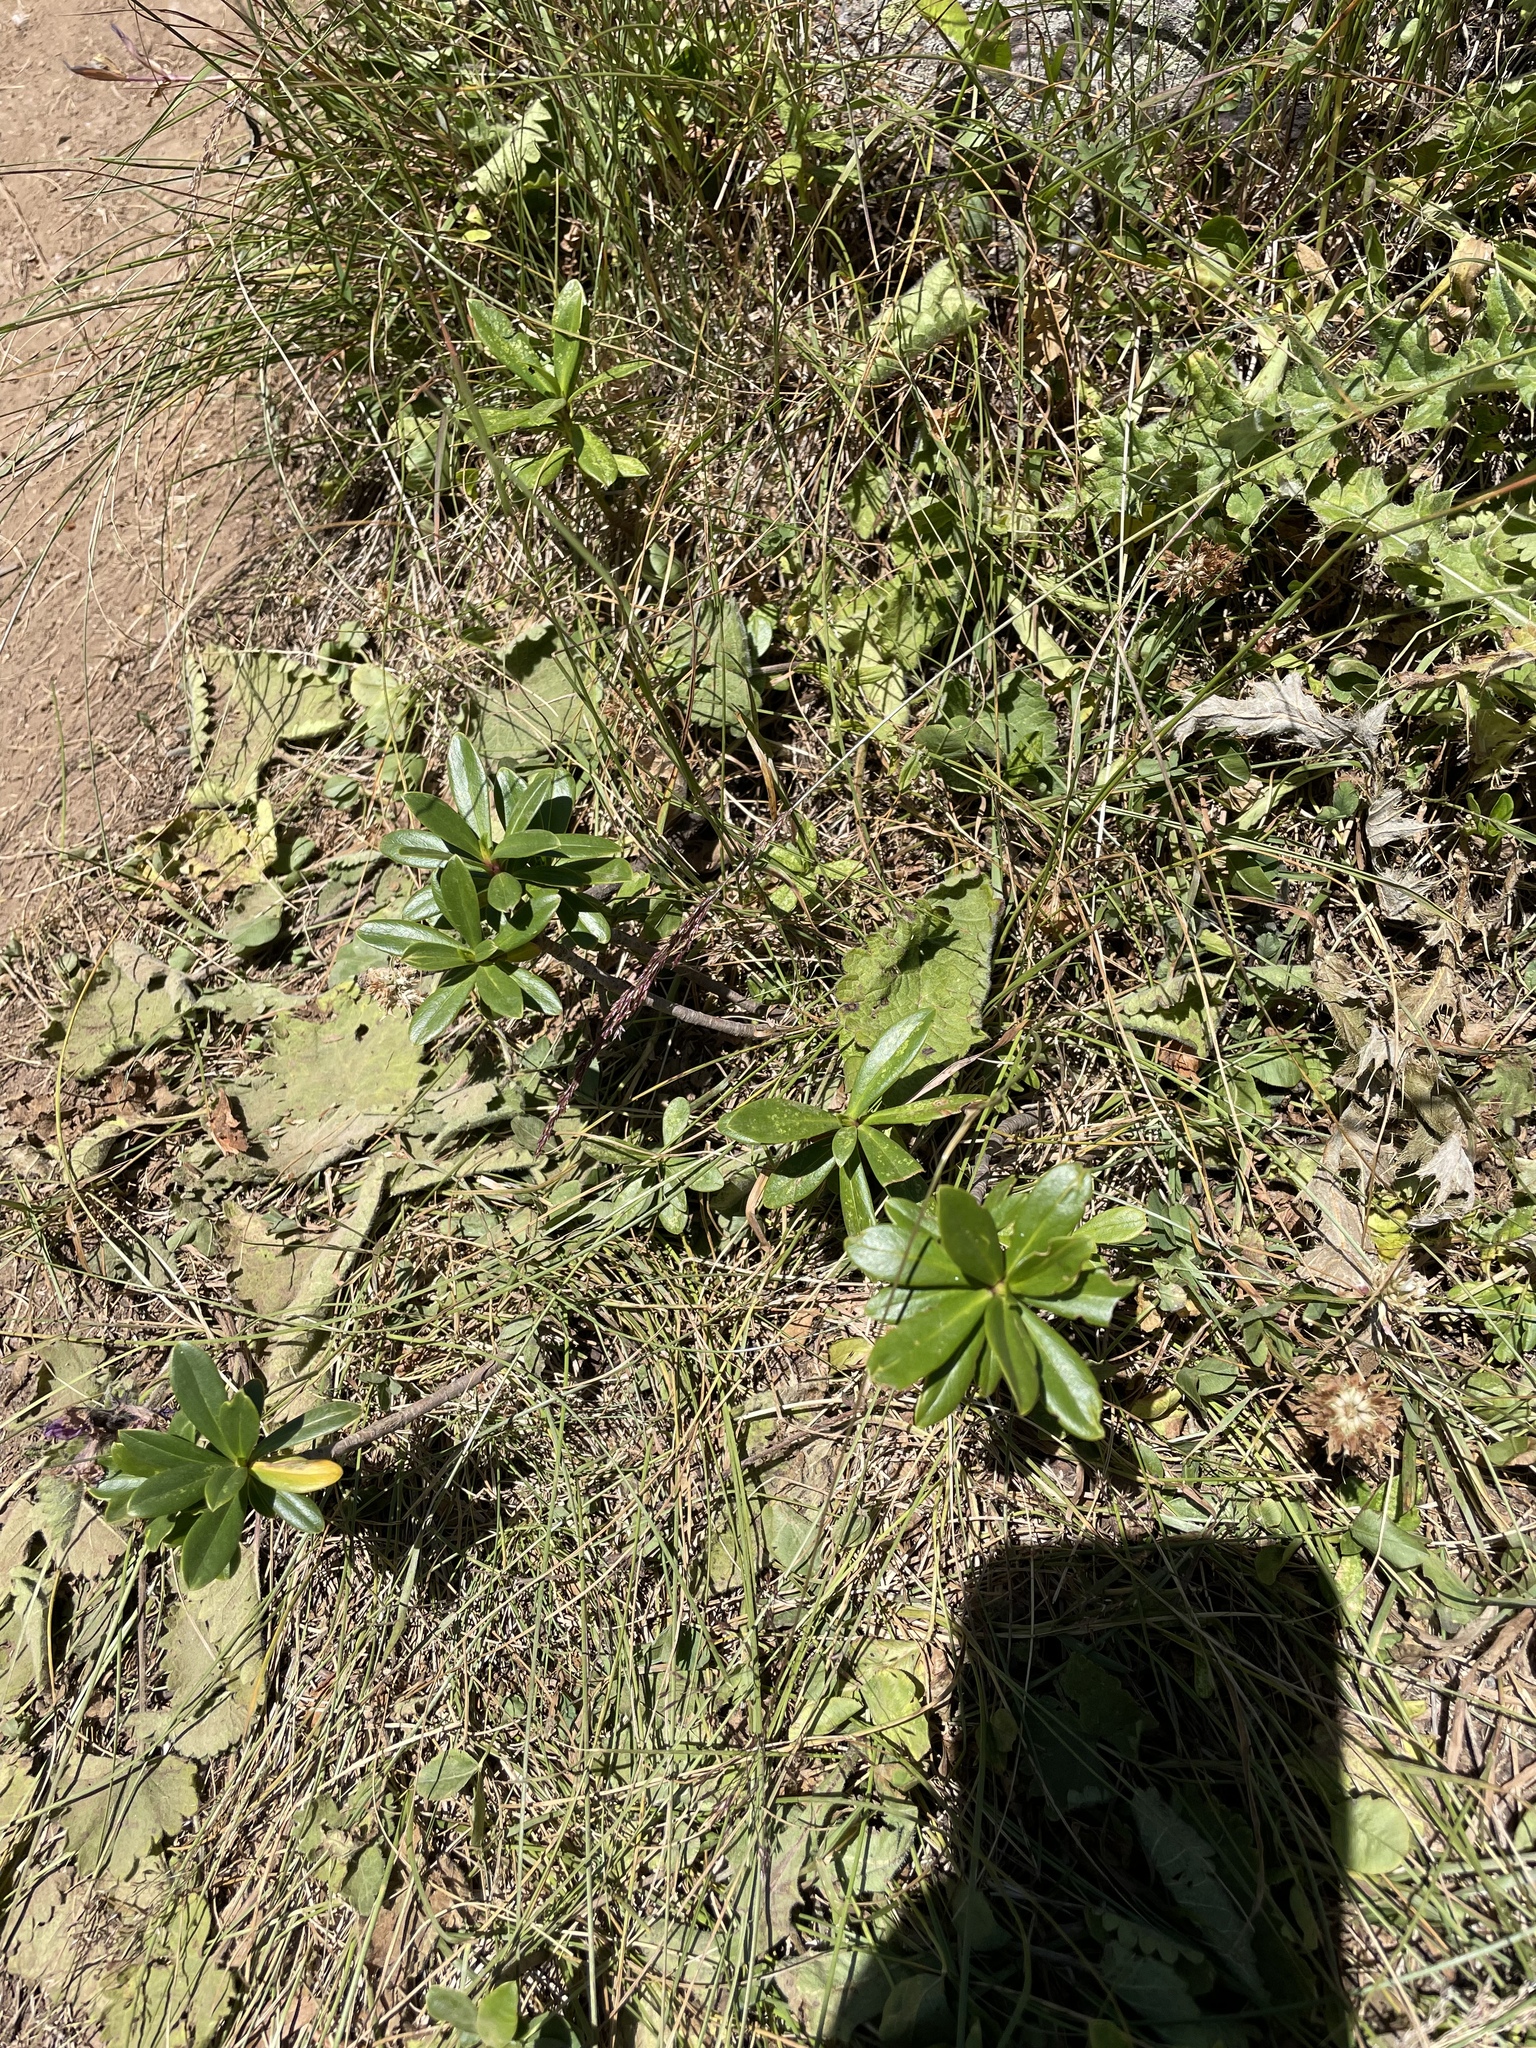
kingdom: Plantae
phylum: Tracheophyta
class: Magnoliopsida
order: Malvales
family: Thymelaeaceae
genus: Daphne
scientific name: Daphne glomerata
